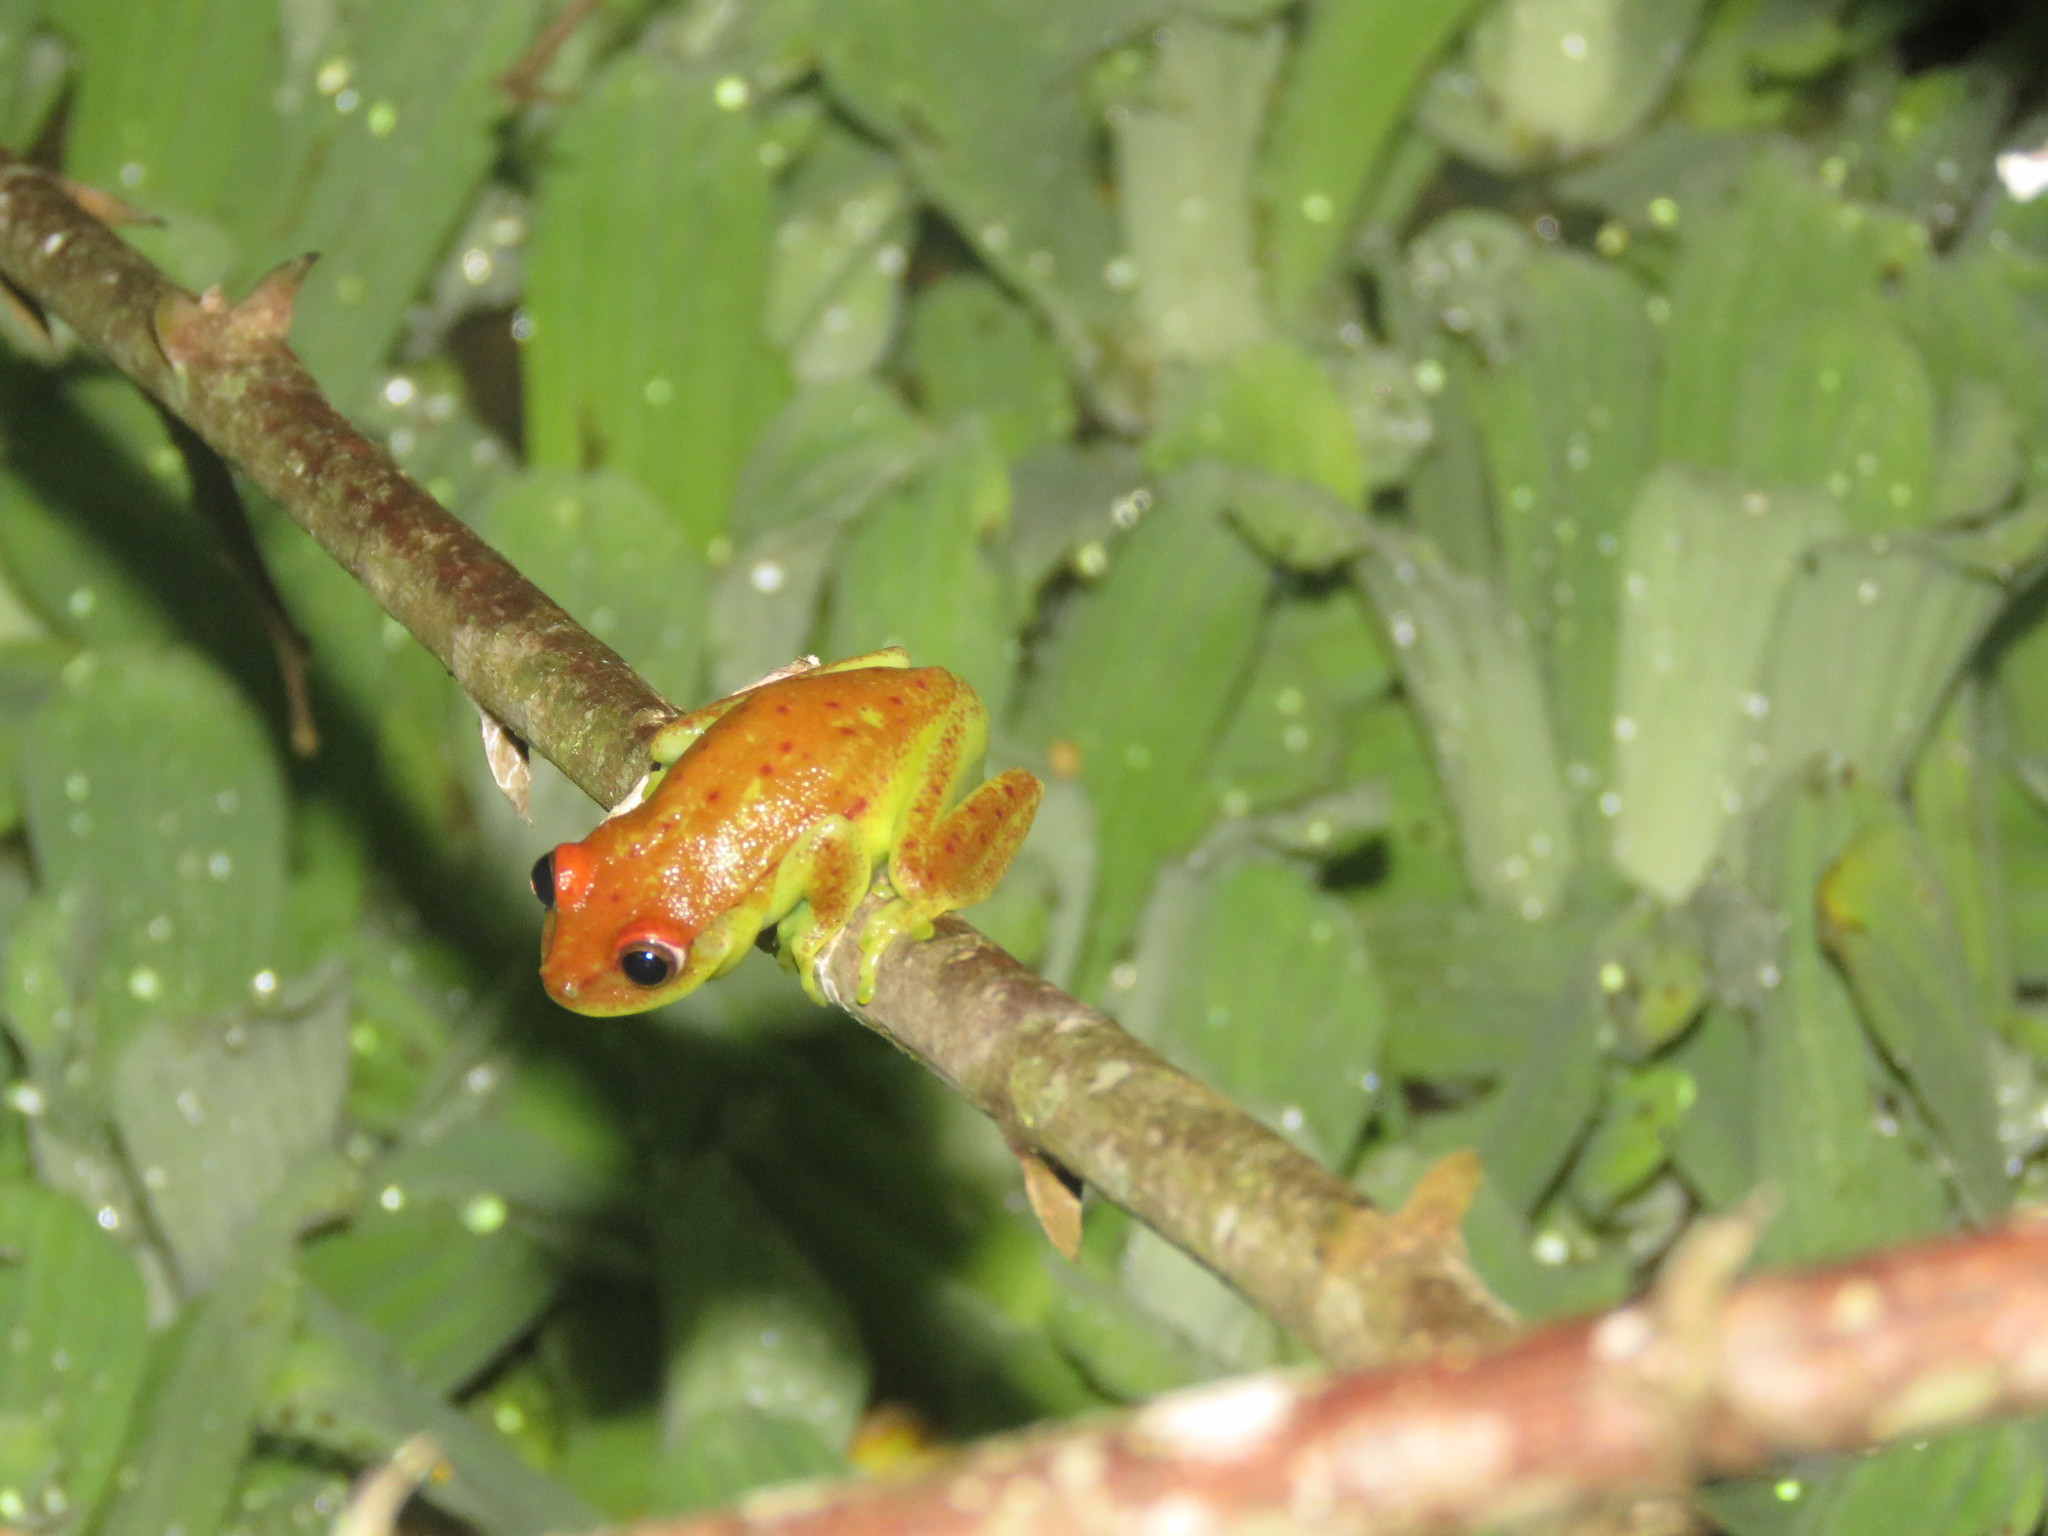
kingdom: Animalia
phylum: Chordata
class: Amphibia
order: Anura
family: Hylidae
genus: Boana
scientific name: Boana punctata
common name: Polka-dot treefrog
